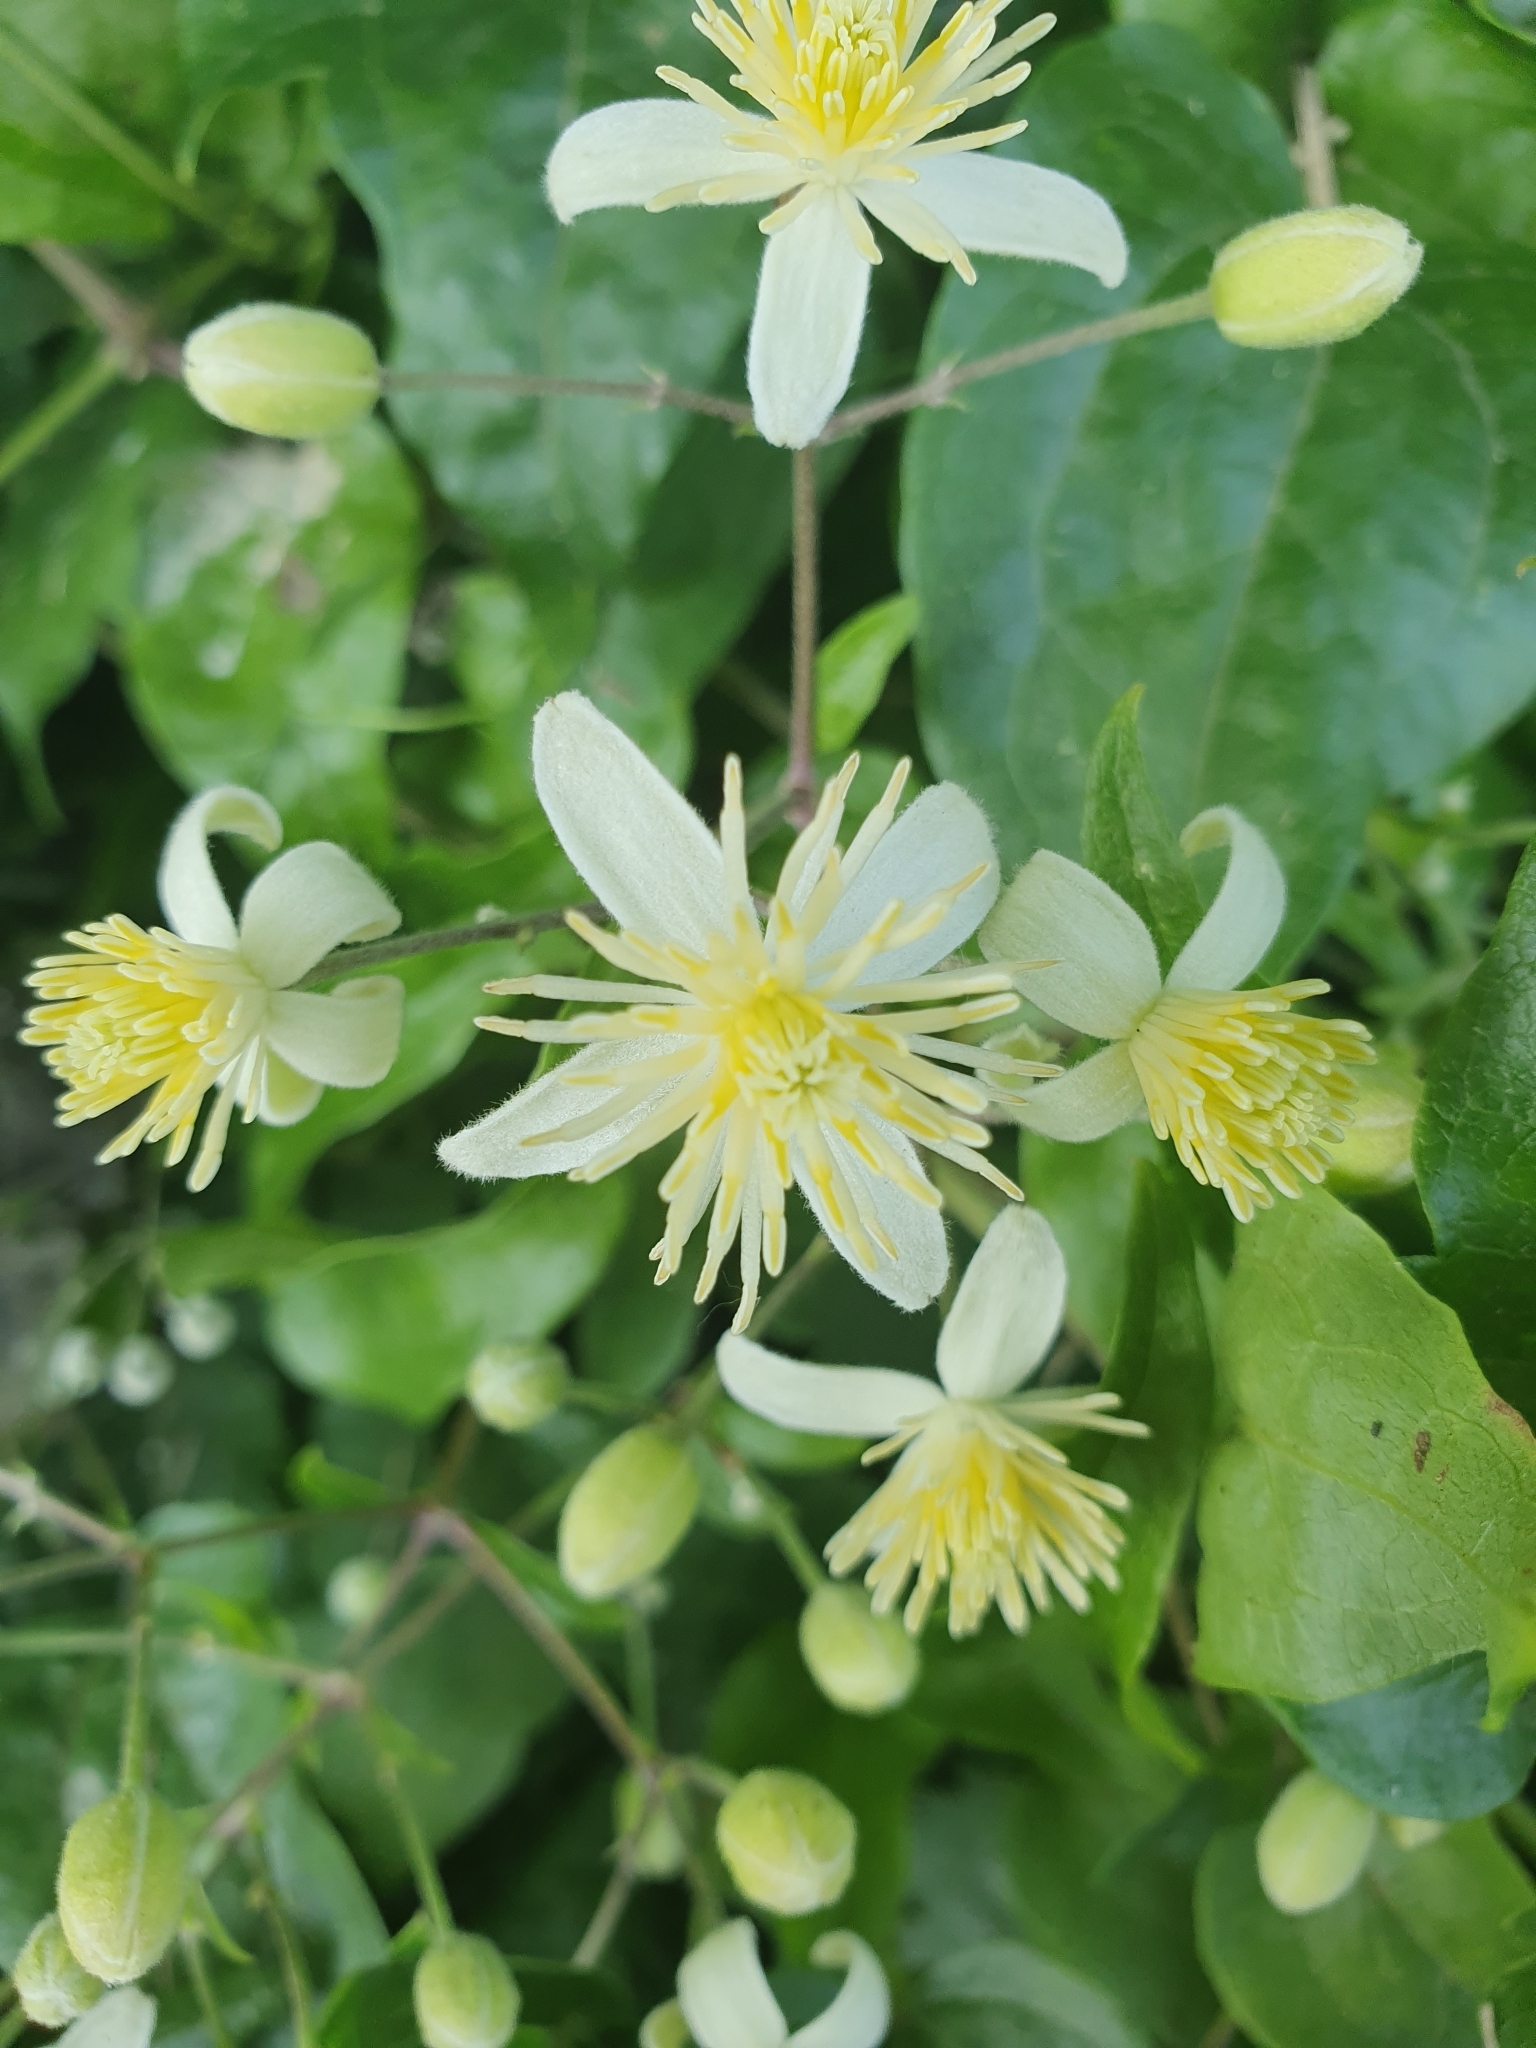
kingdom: Plantae
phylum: Tracheophyta
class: Magnoliopsida
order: Ranunculales
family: Ranunculaceae
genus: Clematis
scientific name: Clematis vitalba
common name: Evergreen clematis
